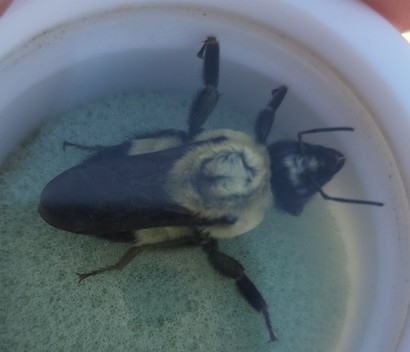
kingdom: Animalia
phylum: Arthropoda
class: Insecta
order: Hymenoptera
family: Apidae
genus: Bombus
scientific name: Bombus griseocollis
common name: Brown-belted bumble bee
